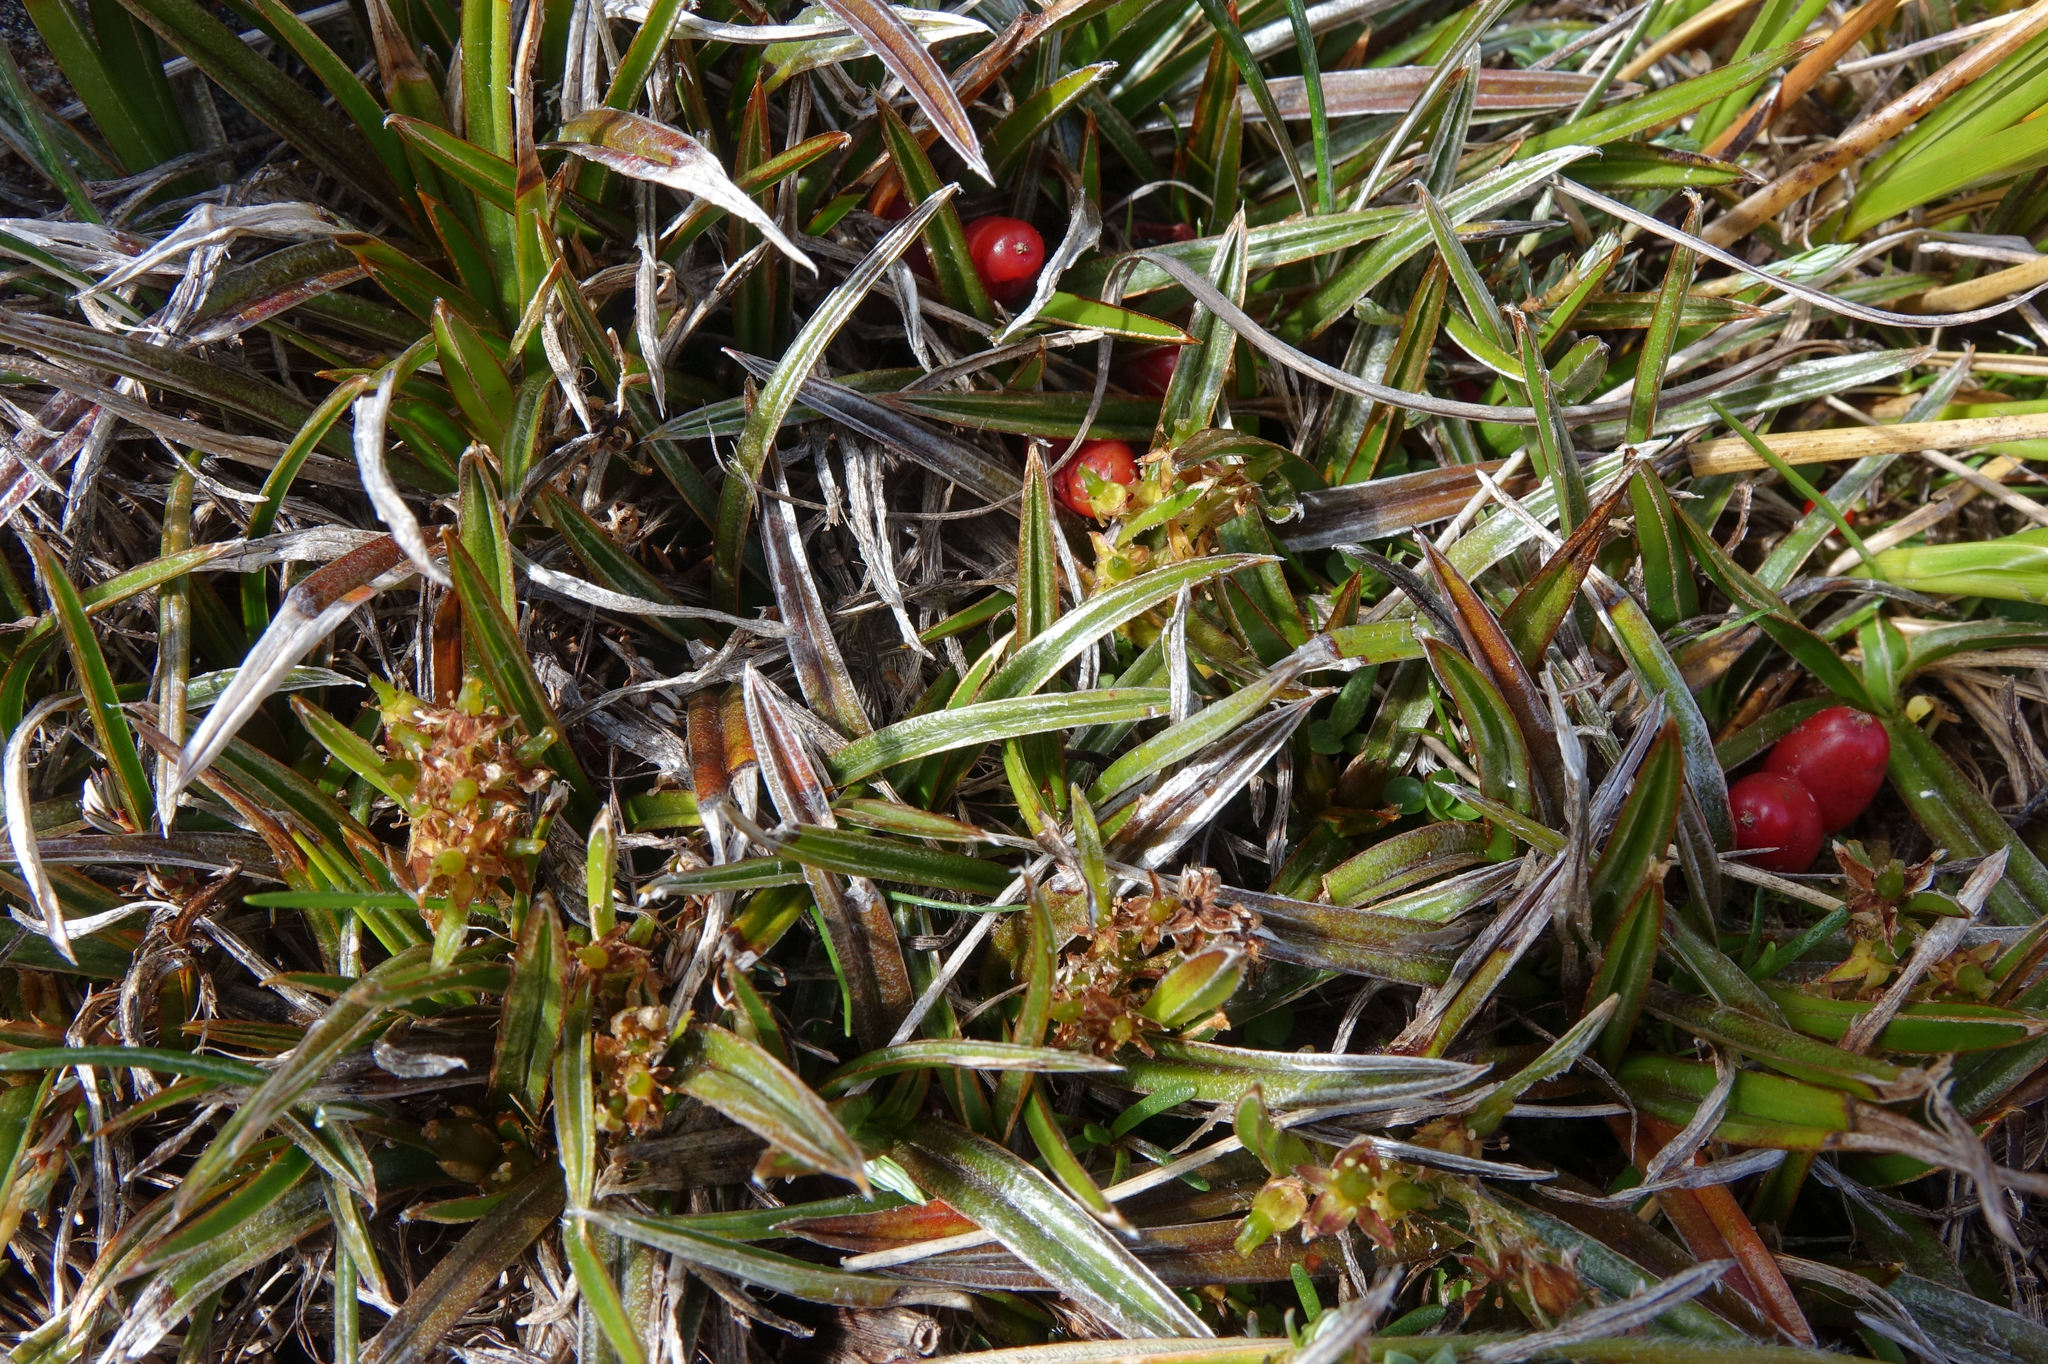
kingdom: Plantae
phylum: Tracheophyta
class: Liliopsida
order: Asparagales
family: Asteliaceae
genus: Astelia
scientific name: Astelia linearis
